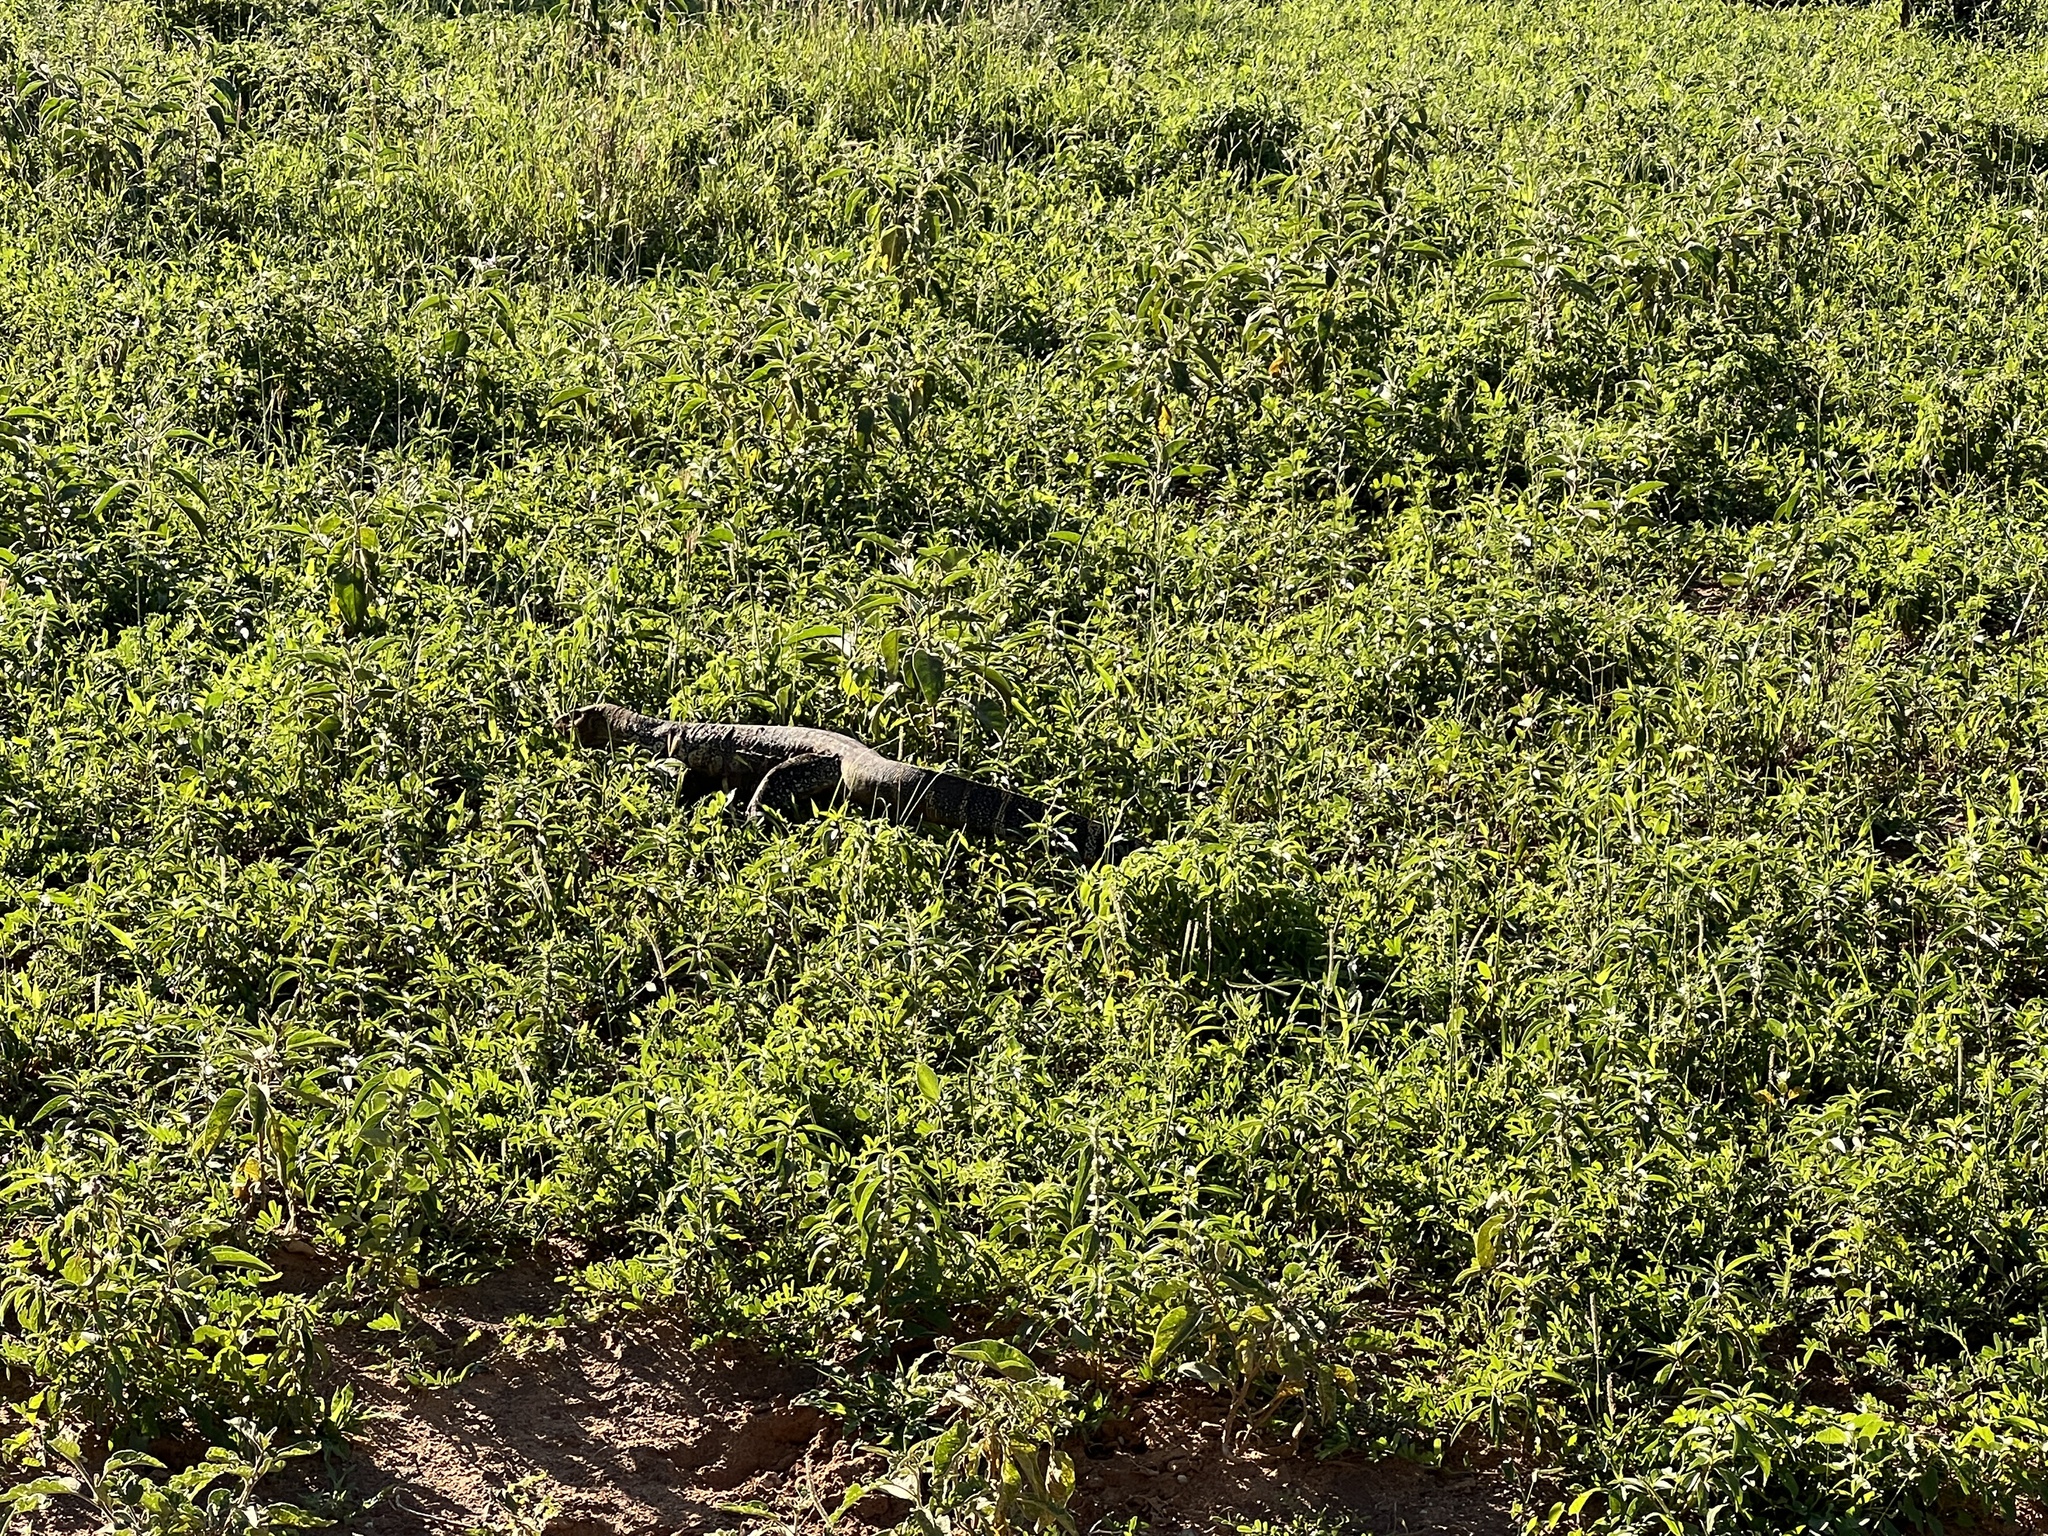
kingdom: Animalia
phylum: Chordata
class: Squamata
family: Varanidae
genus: Varanus
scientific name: Varanus niloticus
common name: Nile monitor
